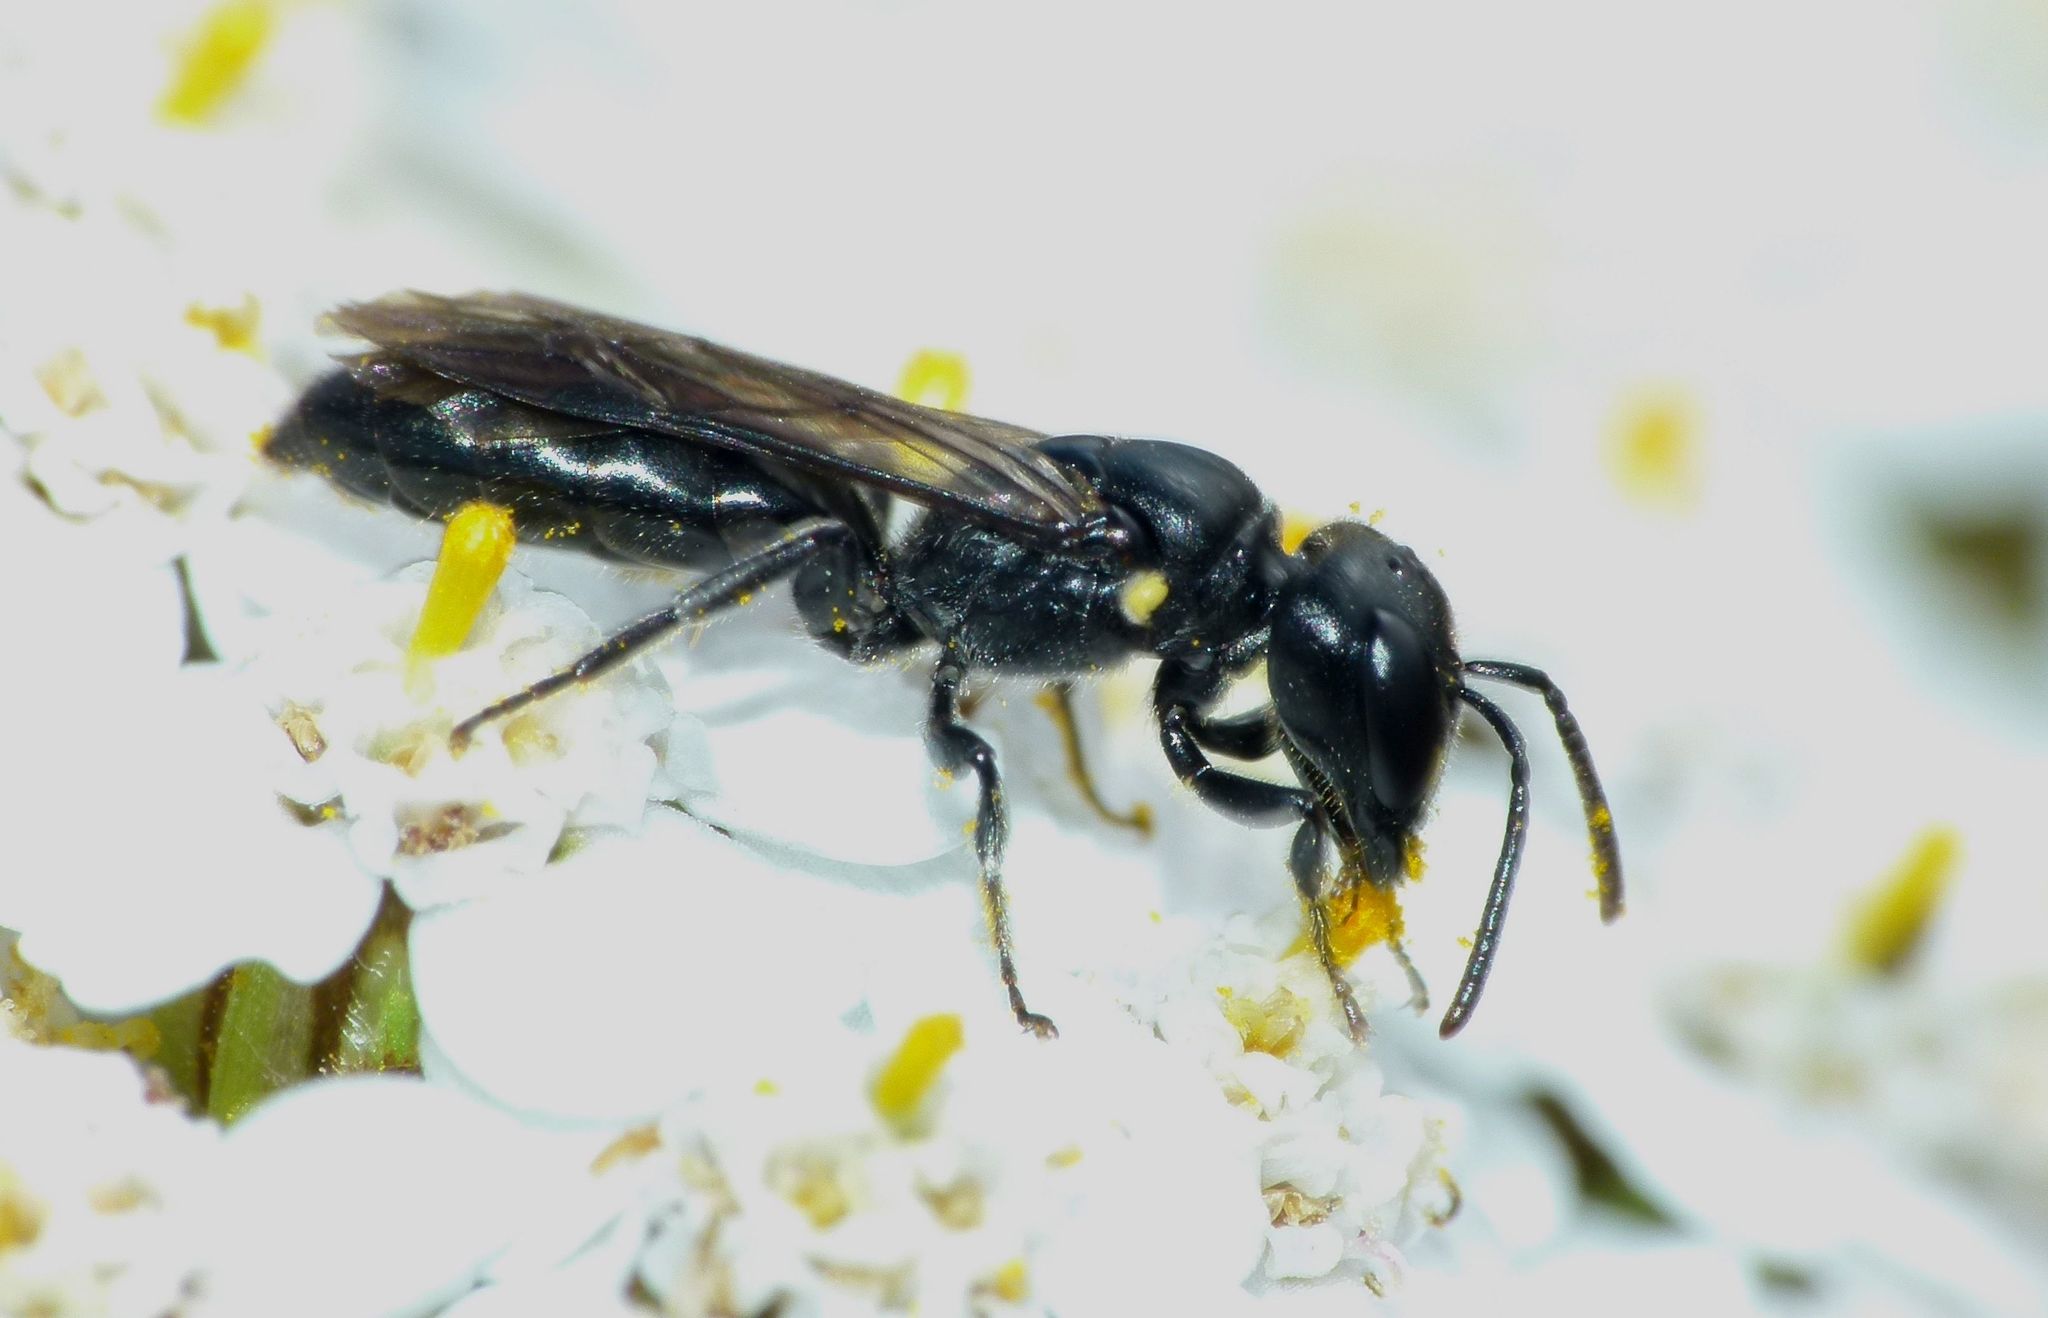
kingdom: Animalia
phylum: Arthropoda
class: Insecta
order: Hymenoptera
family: Colletidae
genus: Hylaeus
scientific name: Hylaeus capitosus
